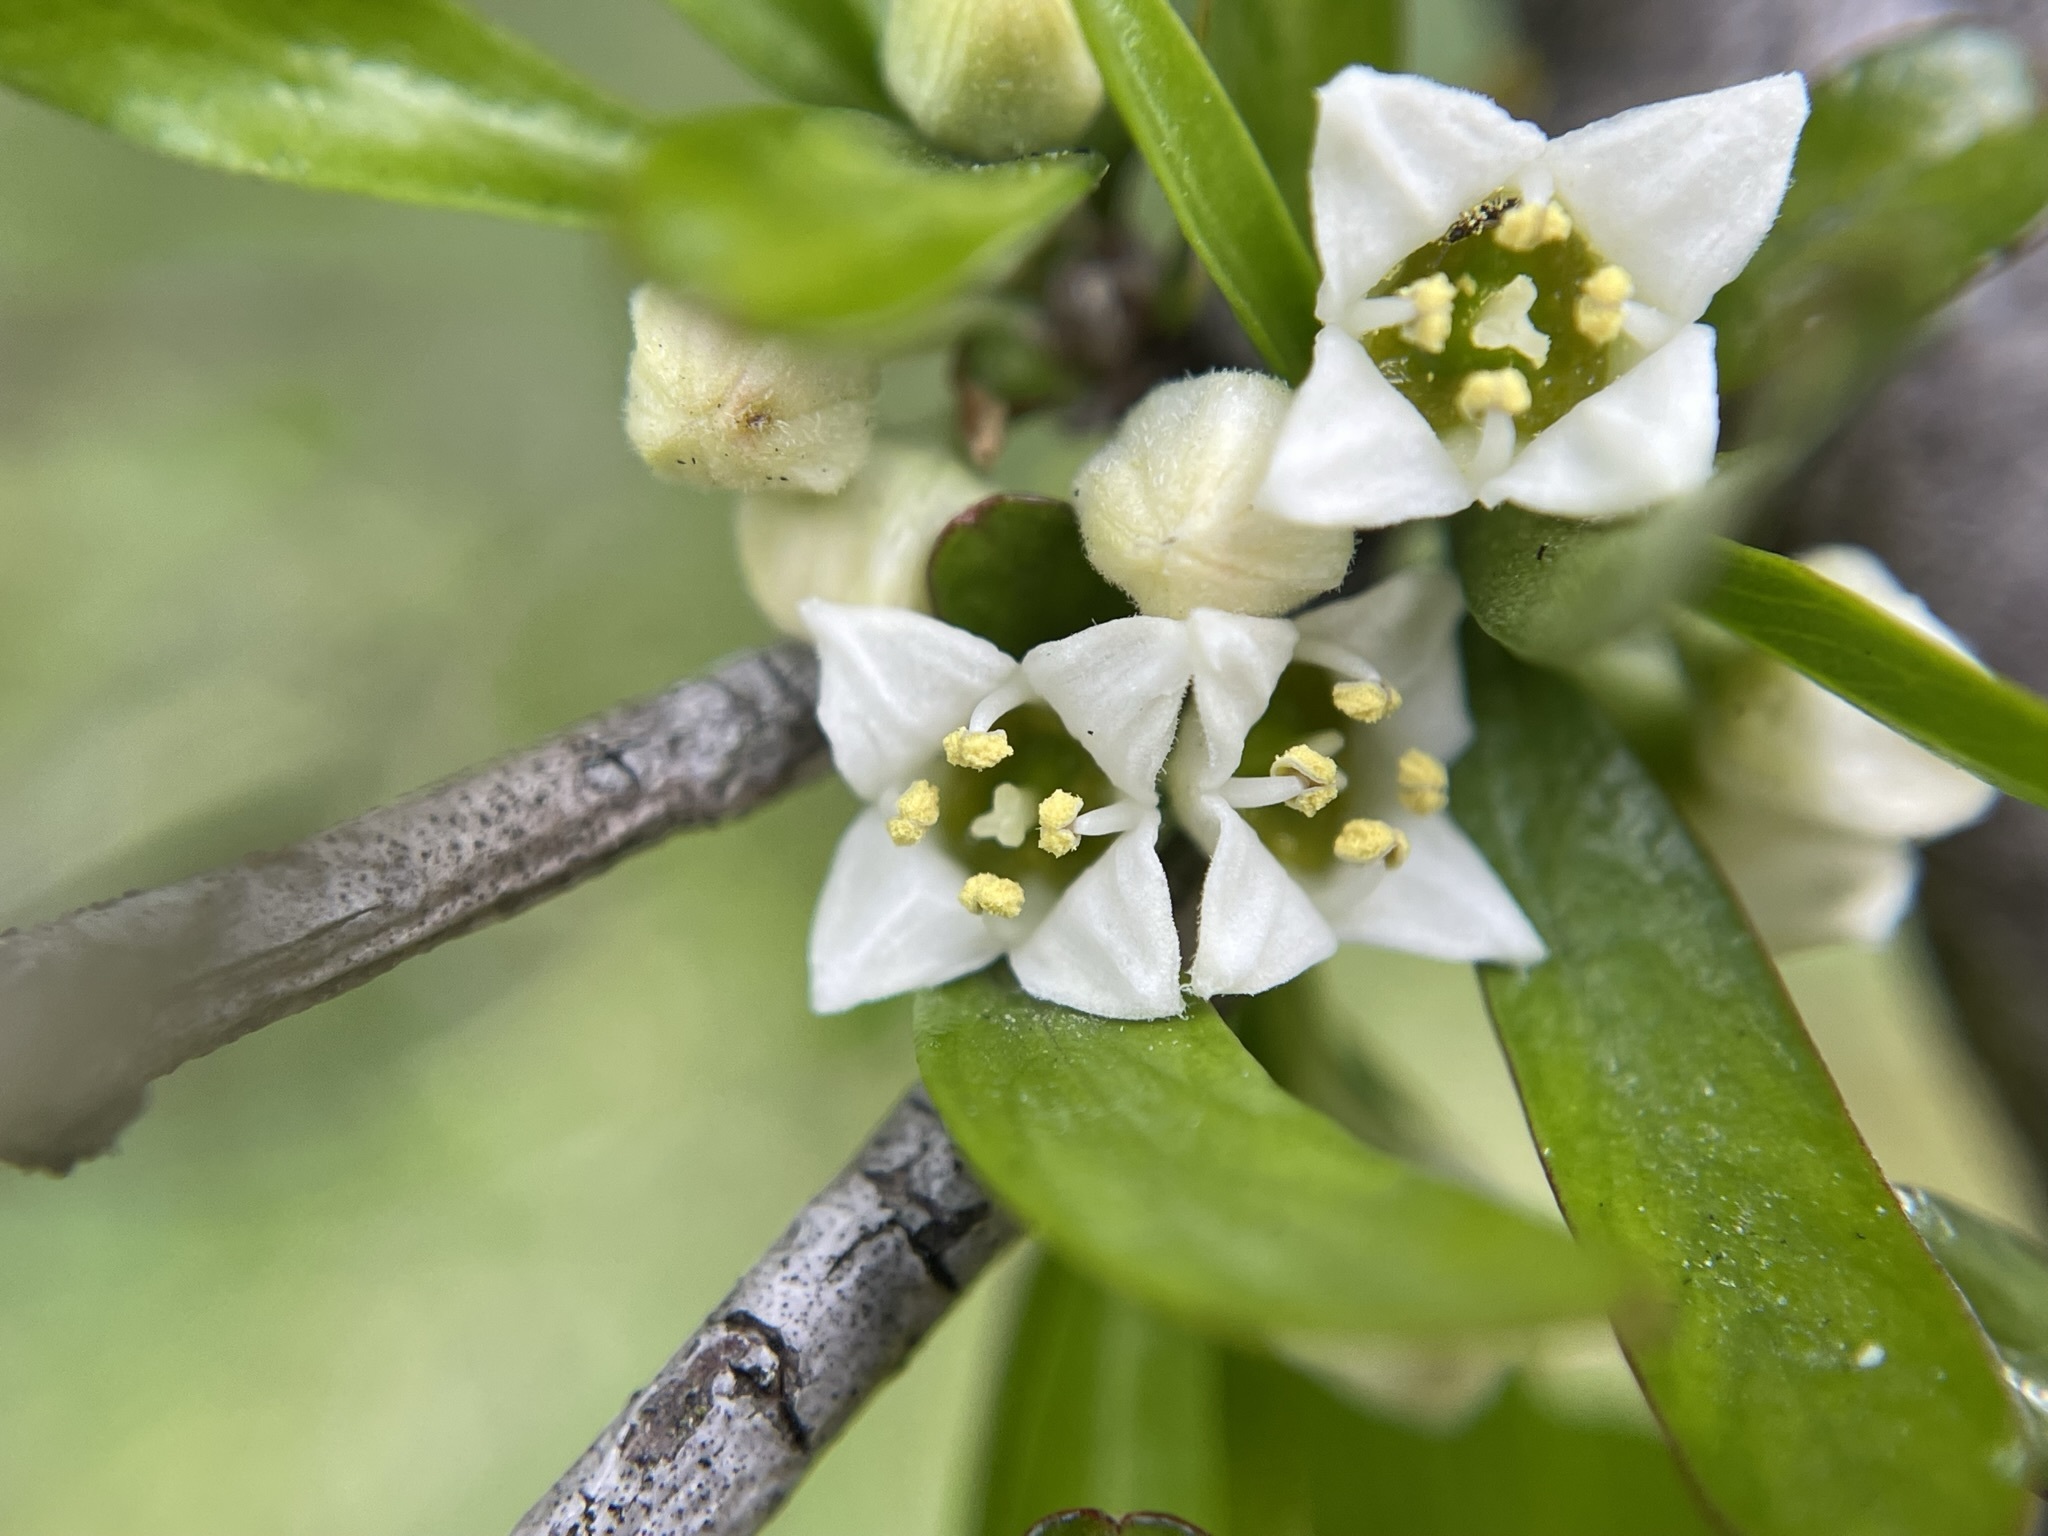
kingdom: Plantae
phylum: Tracheophyta
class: Magnoliopsida
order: Rosales
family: Rhamnaceae
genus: Discaria
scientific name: Discaria toumatou
